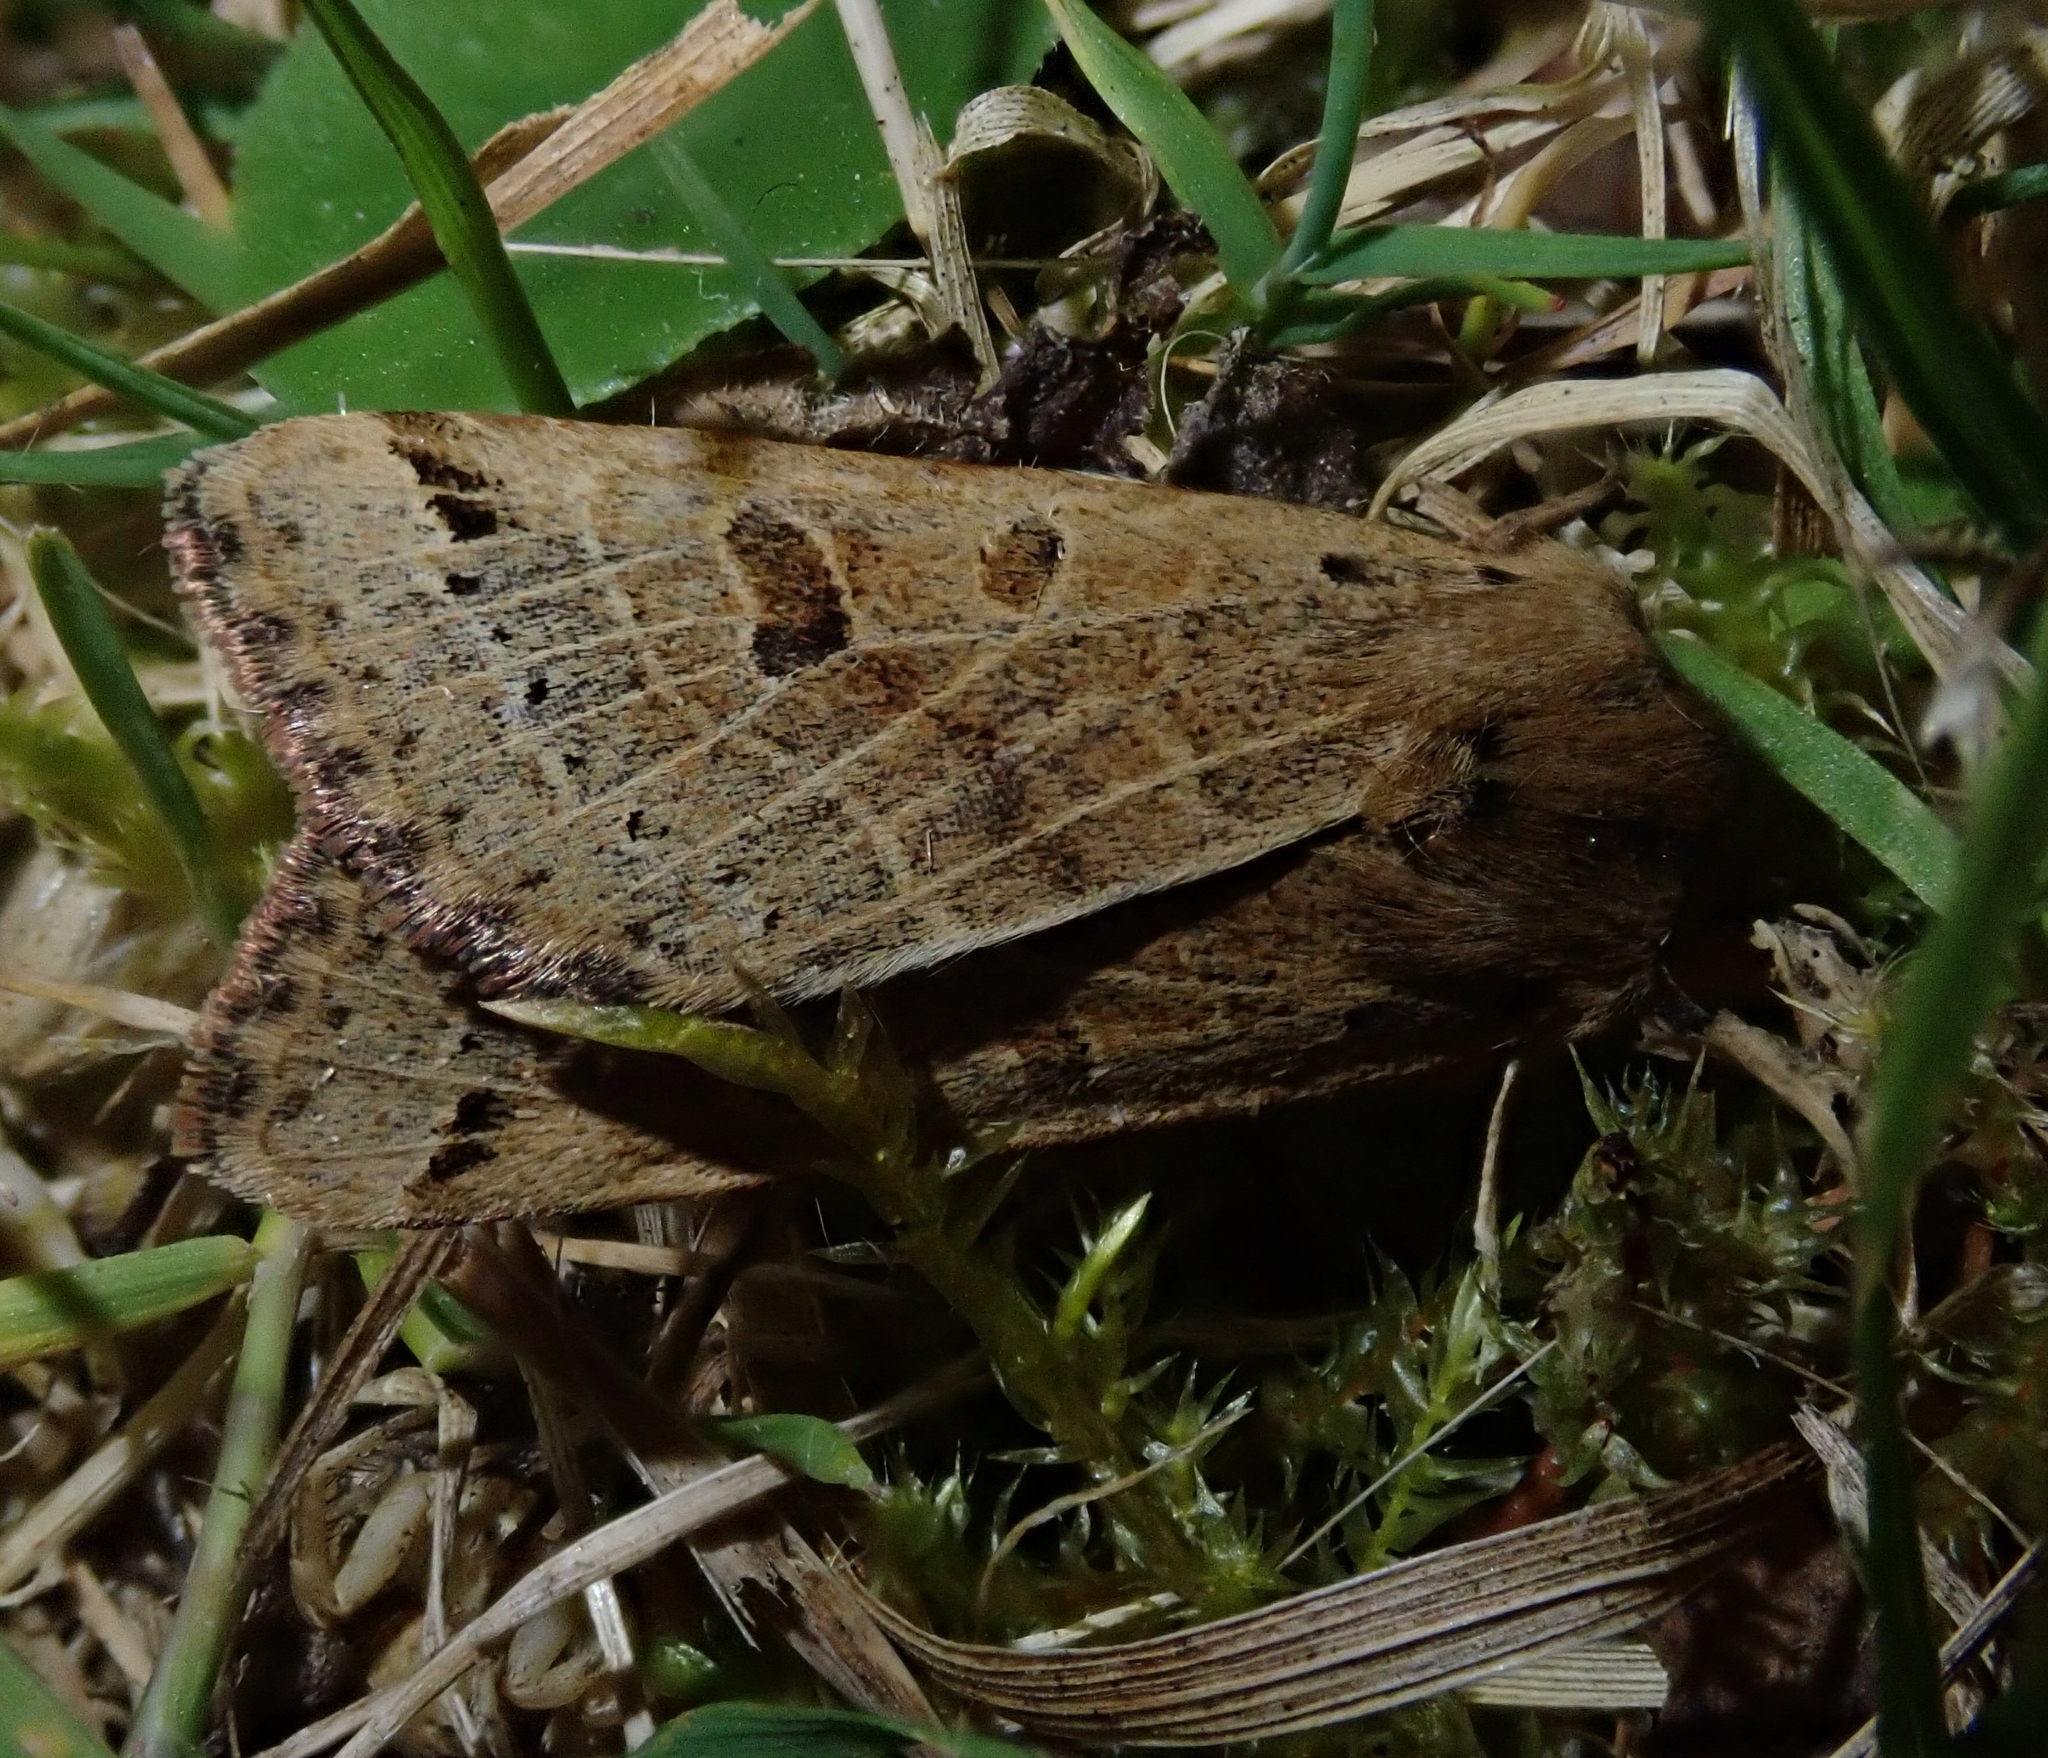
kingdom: Animalia
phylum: Arthropoda
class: Insecta
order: Lepidoptera
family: Noctuidae
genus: Agrochola
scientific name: Agrochola lunosa
